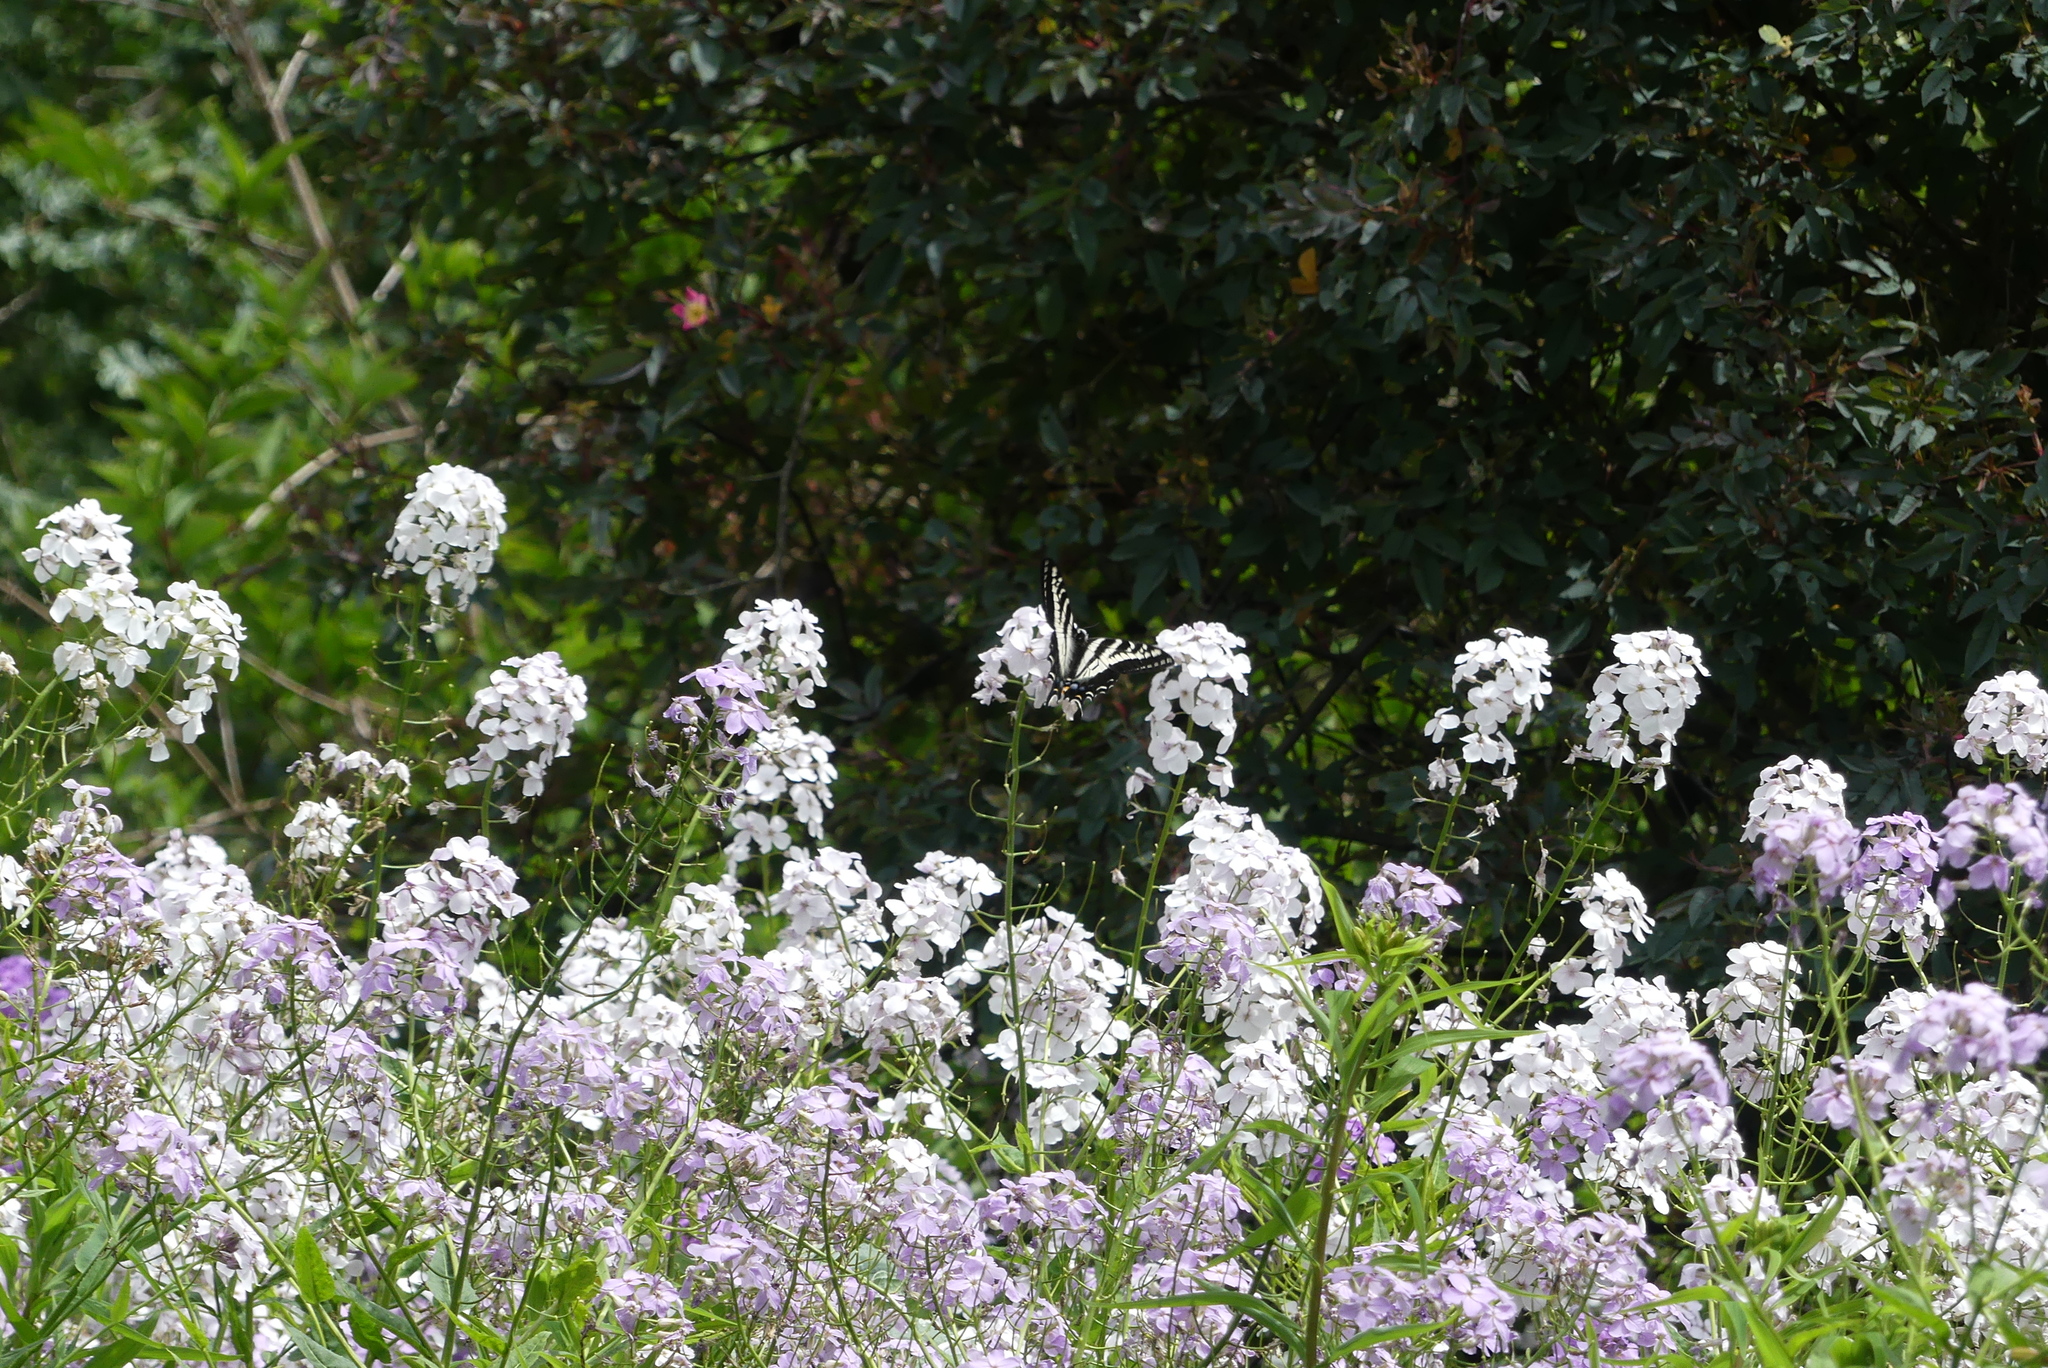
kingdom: Animalia
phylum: Arthropoda
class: Insecta
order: Lepidoptera
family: Papilionidae
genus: Papilio
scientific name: Papilio eurymedon
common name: Pale tiger swallowtail
